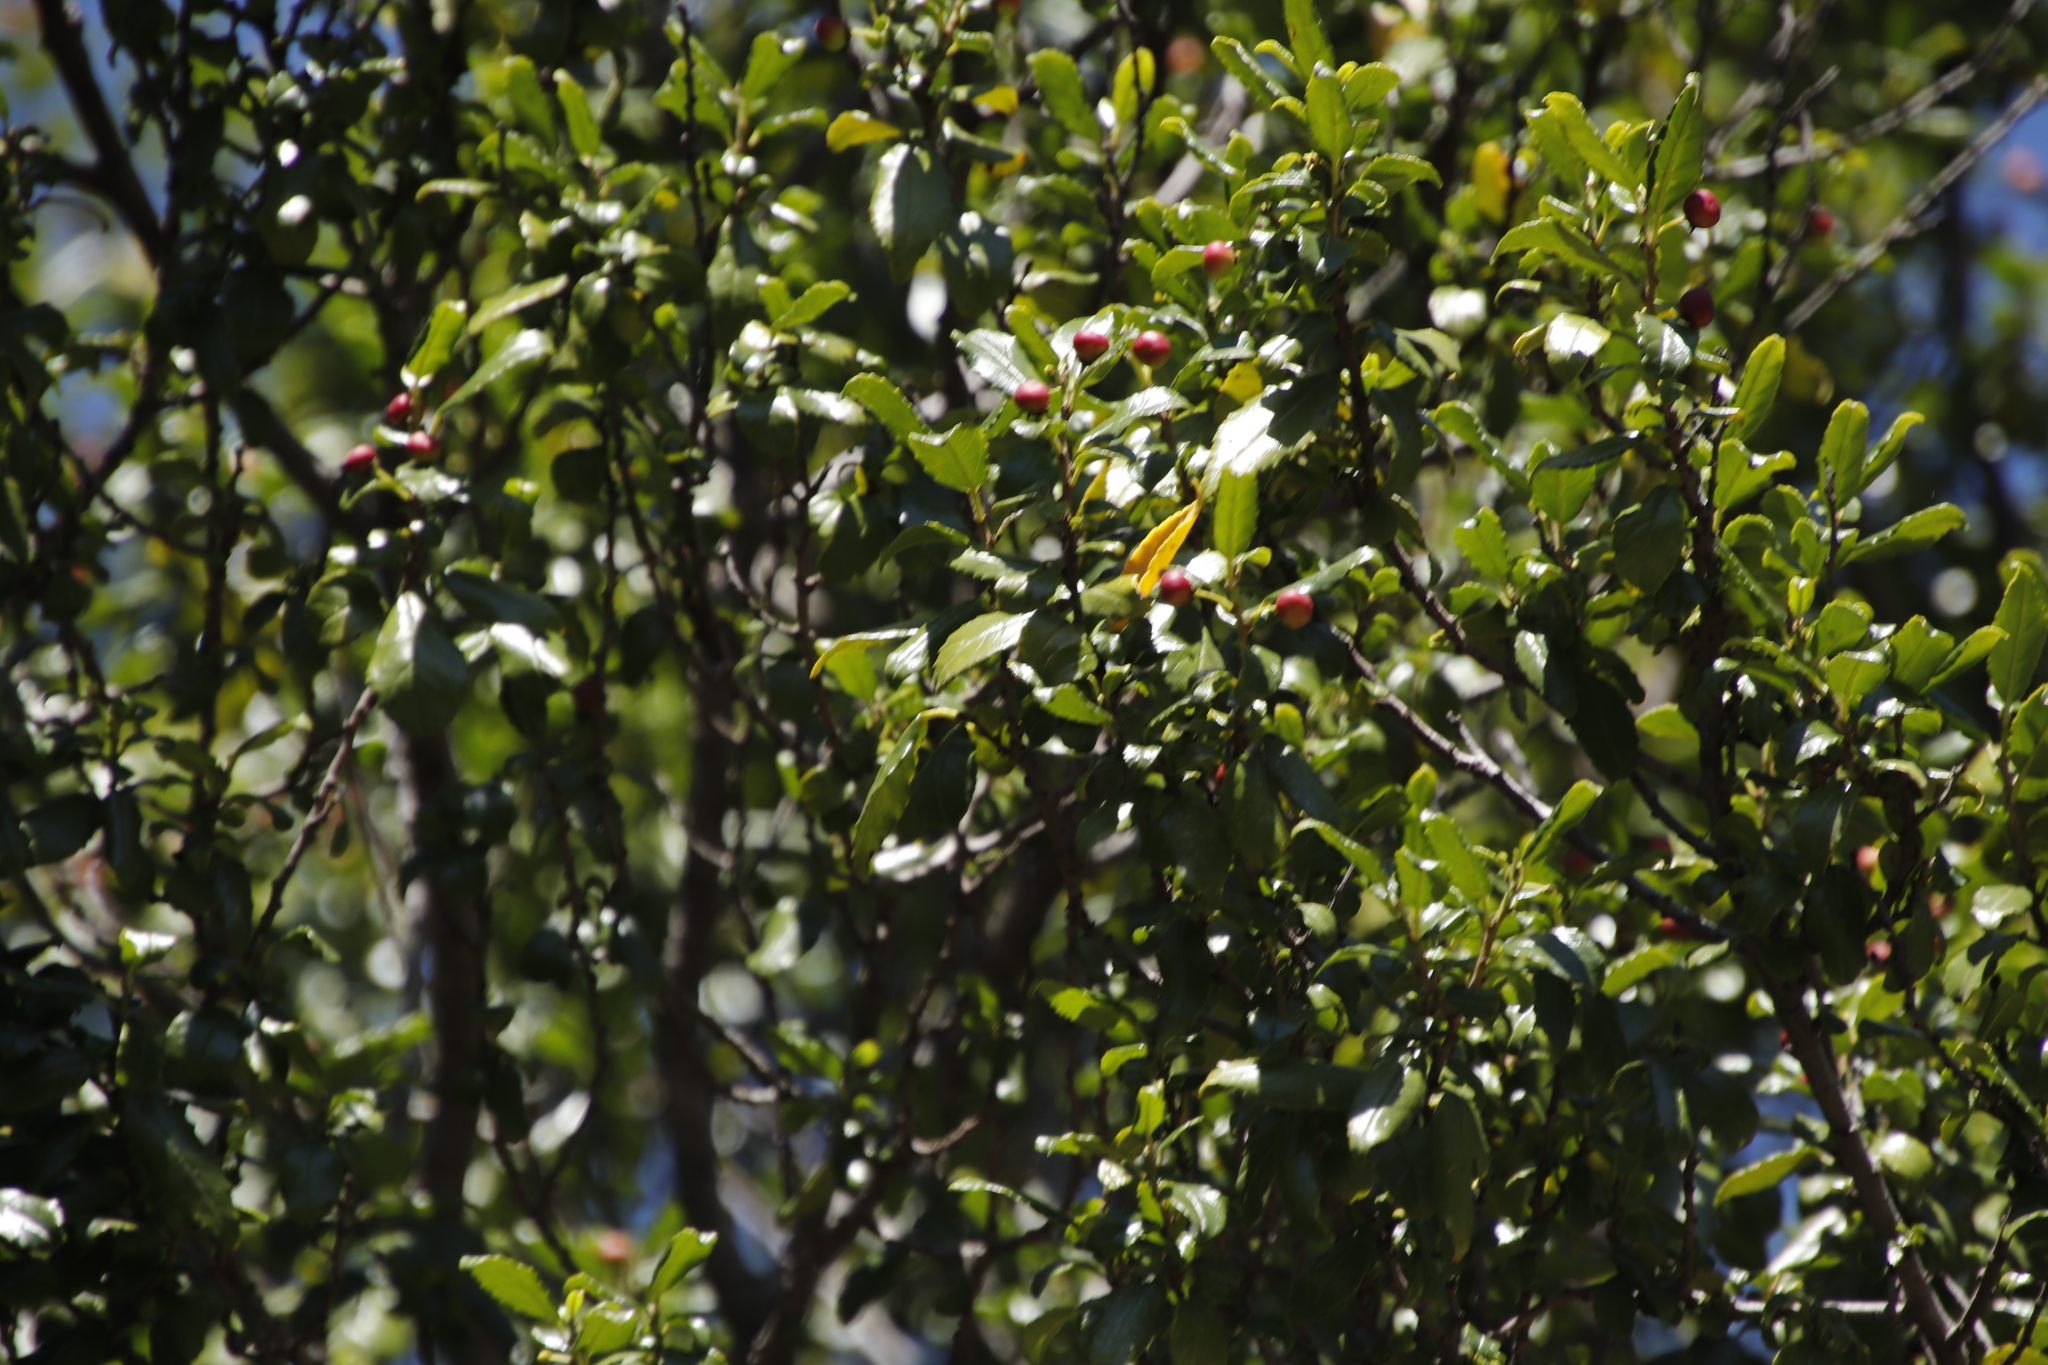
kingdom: Plantae
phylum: Tracheophyta
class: Magnoliopsida
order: Rosales
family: Rhamnaceae
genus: Rhamnus
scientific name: Rhamnus prinoides
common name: Dogwood
